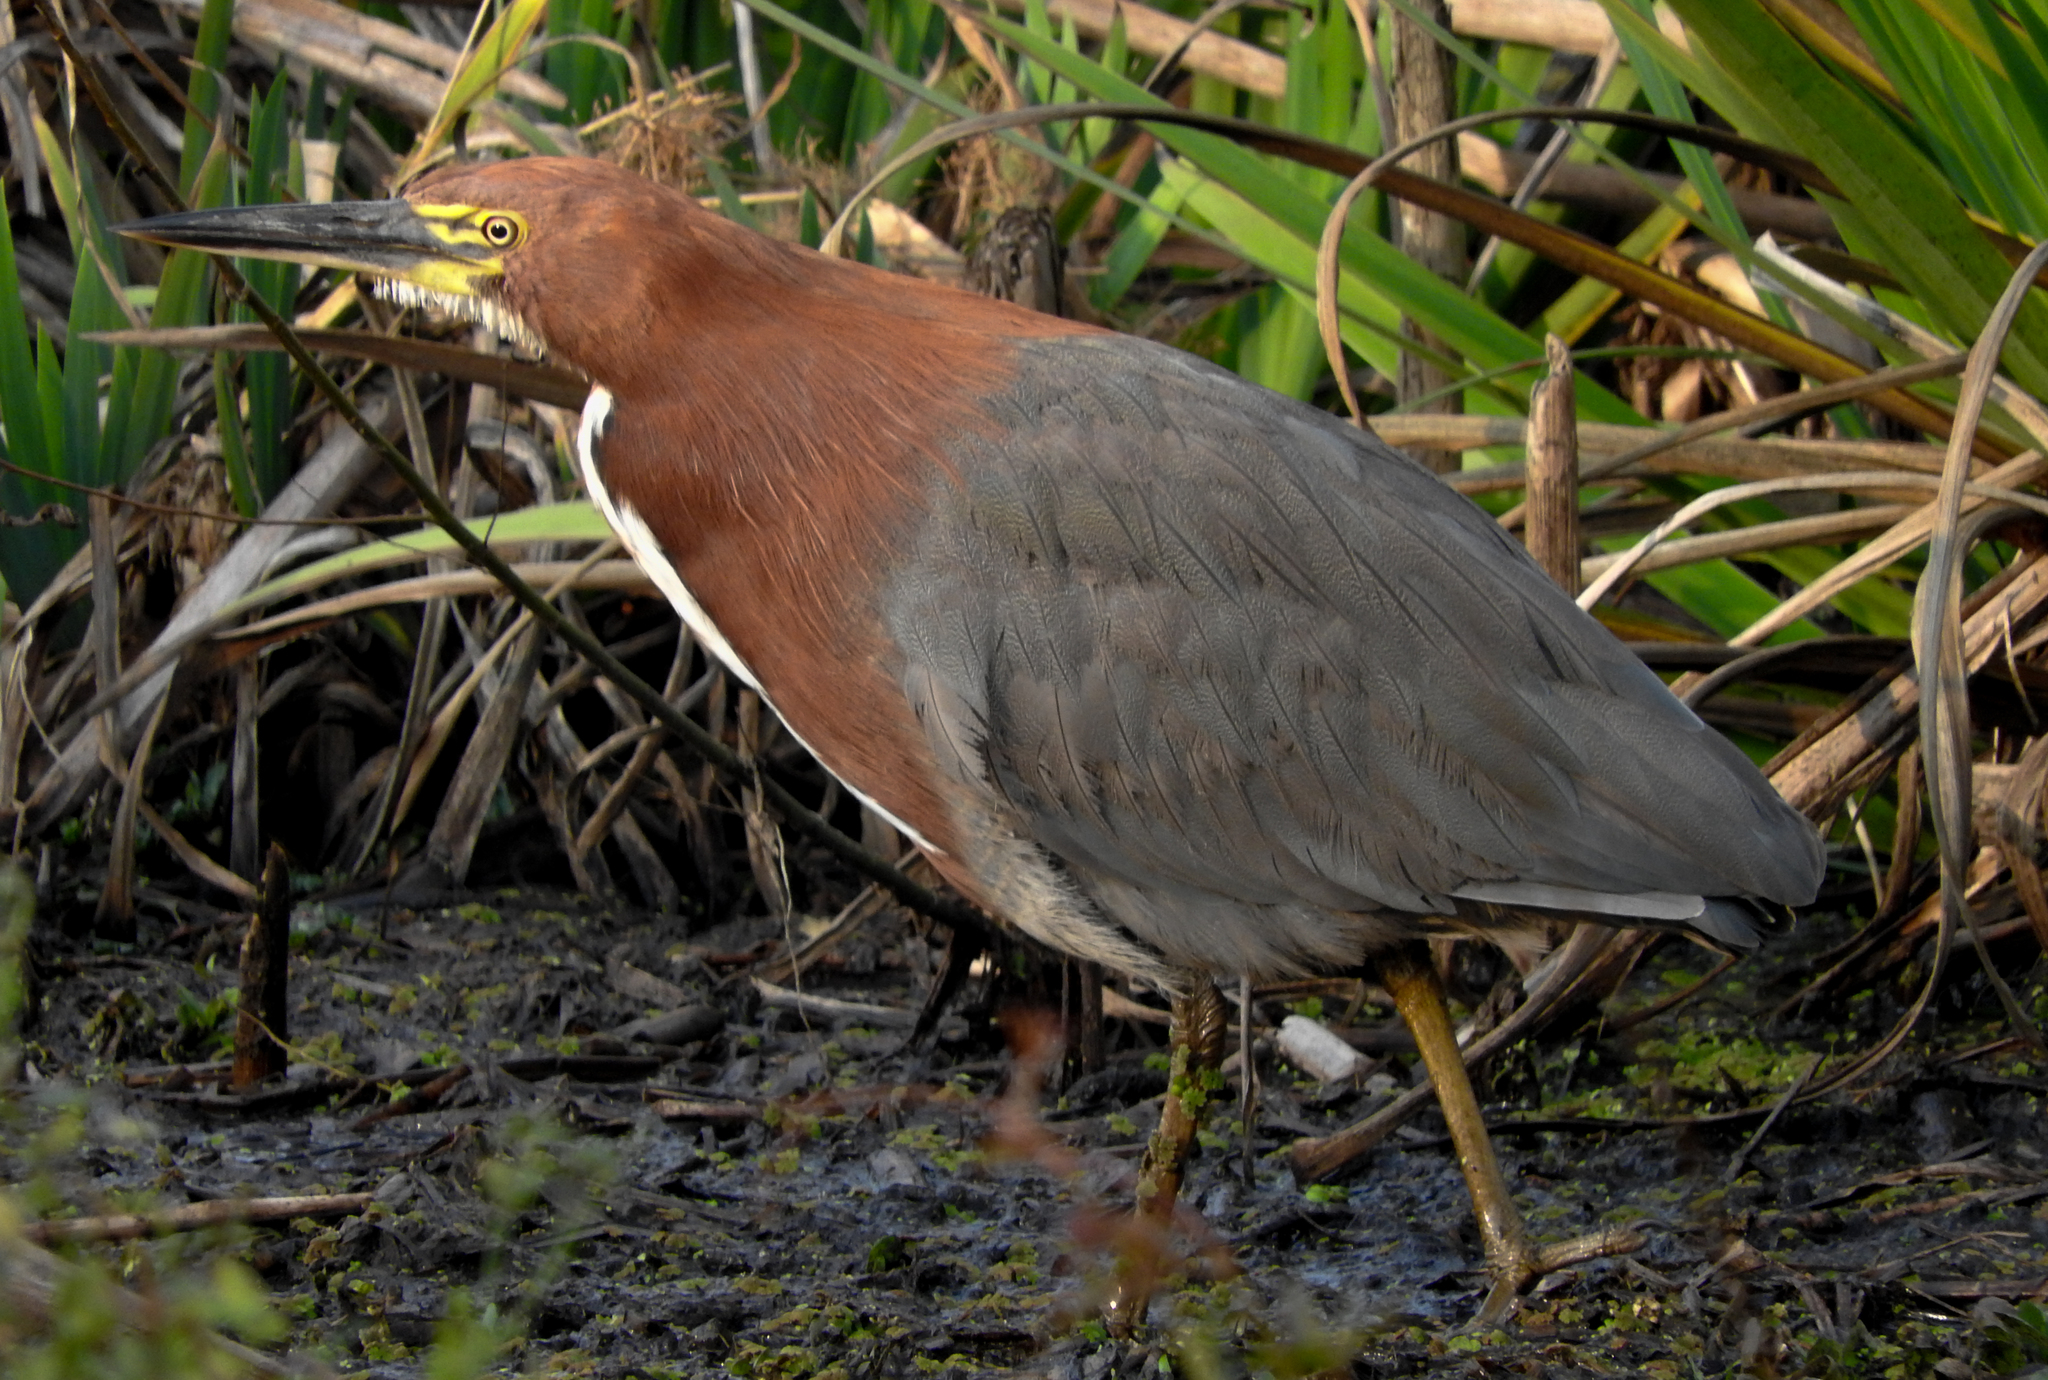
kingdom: Animalia
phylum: Chordata
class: Aves
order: Pelecaniformes
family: Ardeidae
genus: Tigrisoma
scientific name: Tigrisoma lineatum
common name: Rufescent tiger-heron
